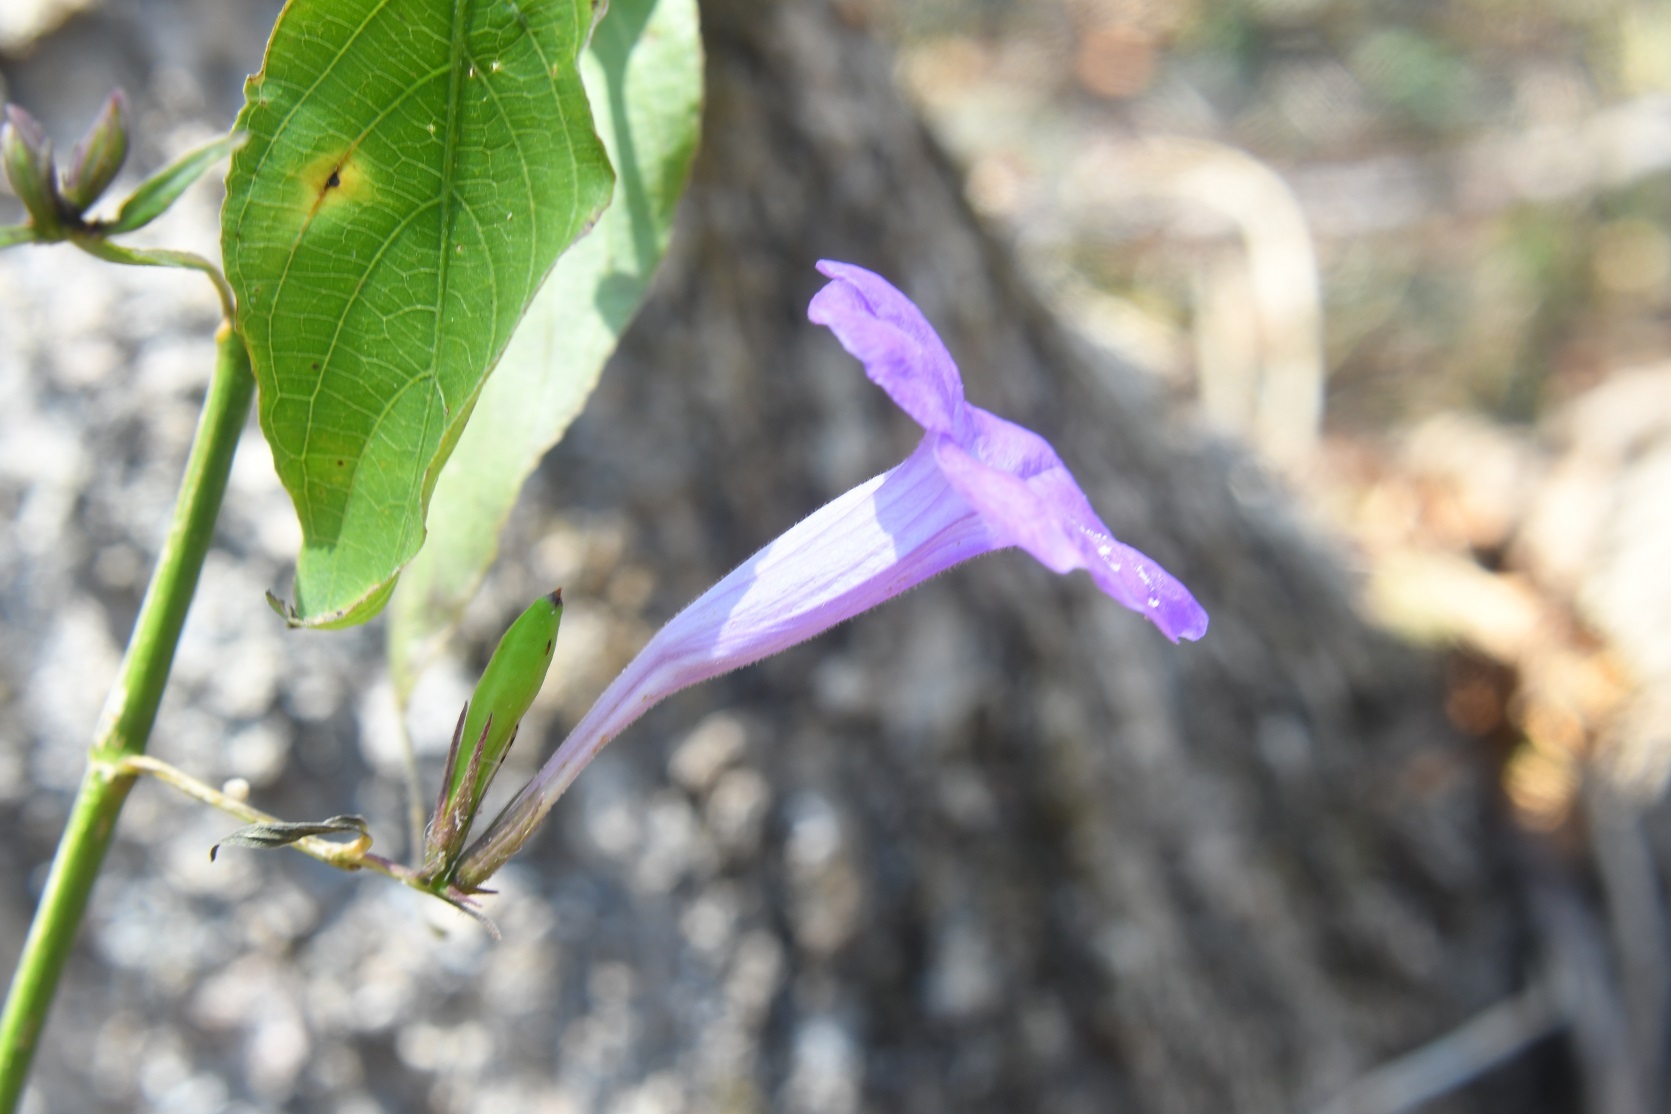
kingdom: Plantae
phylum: Tracheophyta
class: Magnoliopsida
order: Lamiales
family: Acanthaceae
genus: Ruellia
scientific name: Ruellia breedlovei
